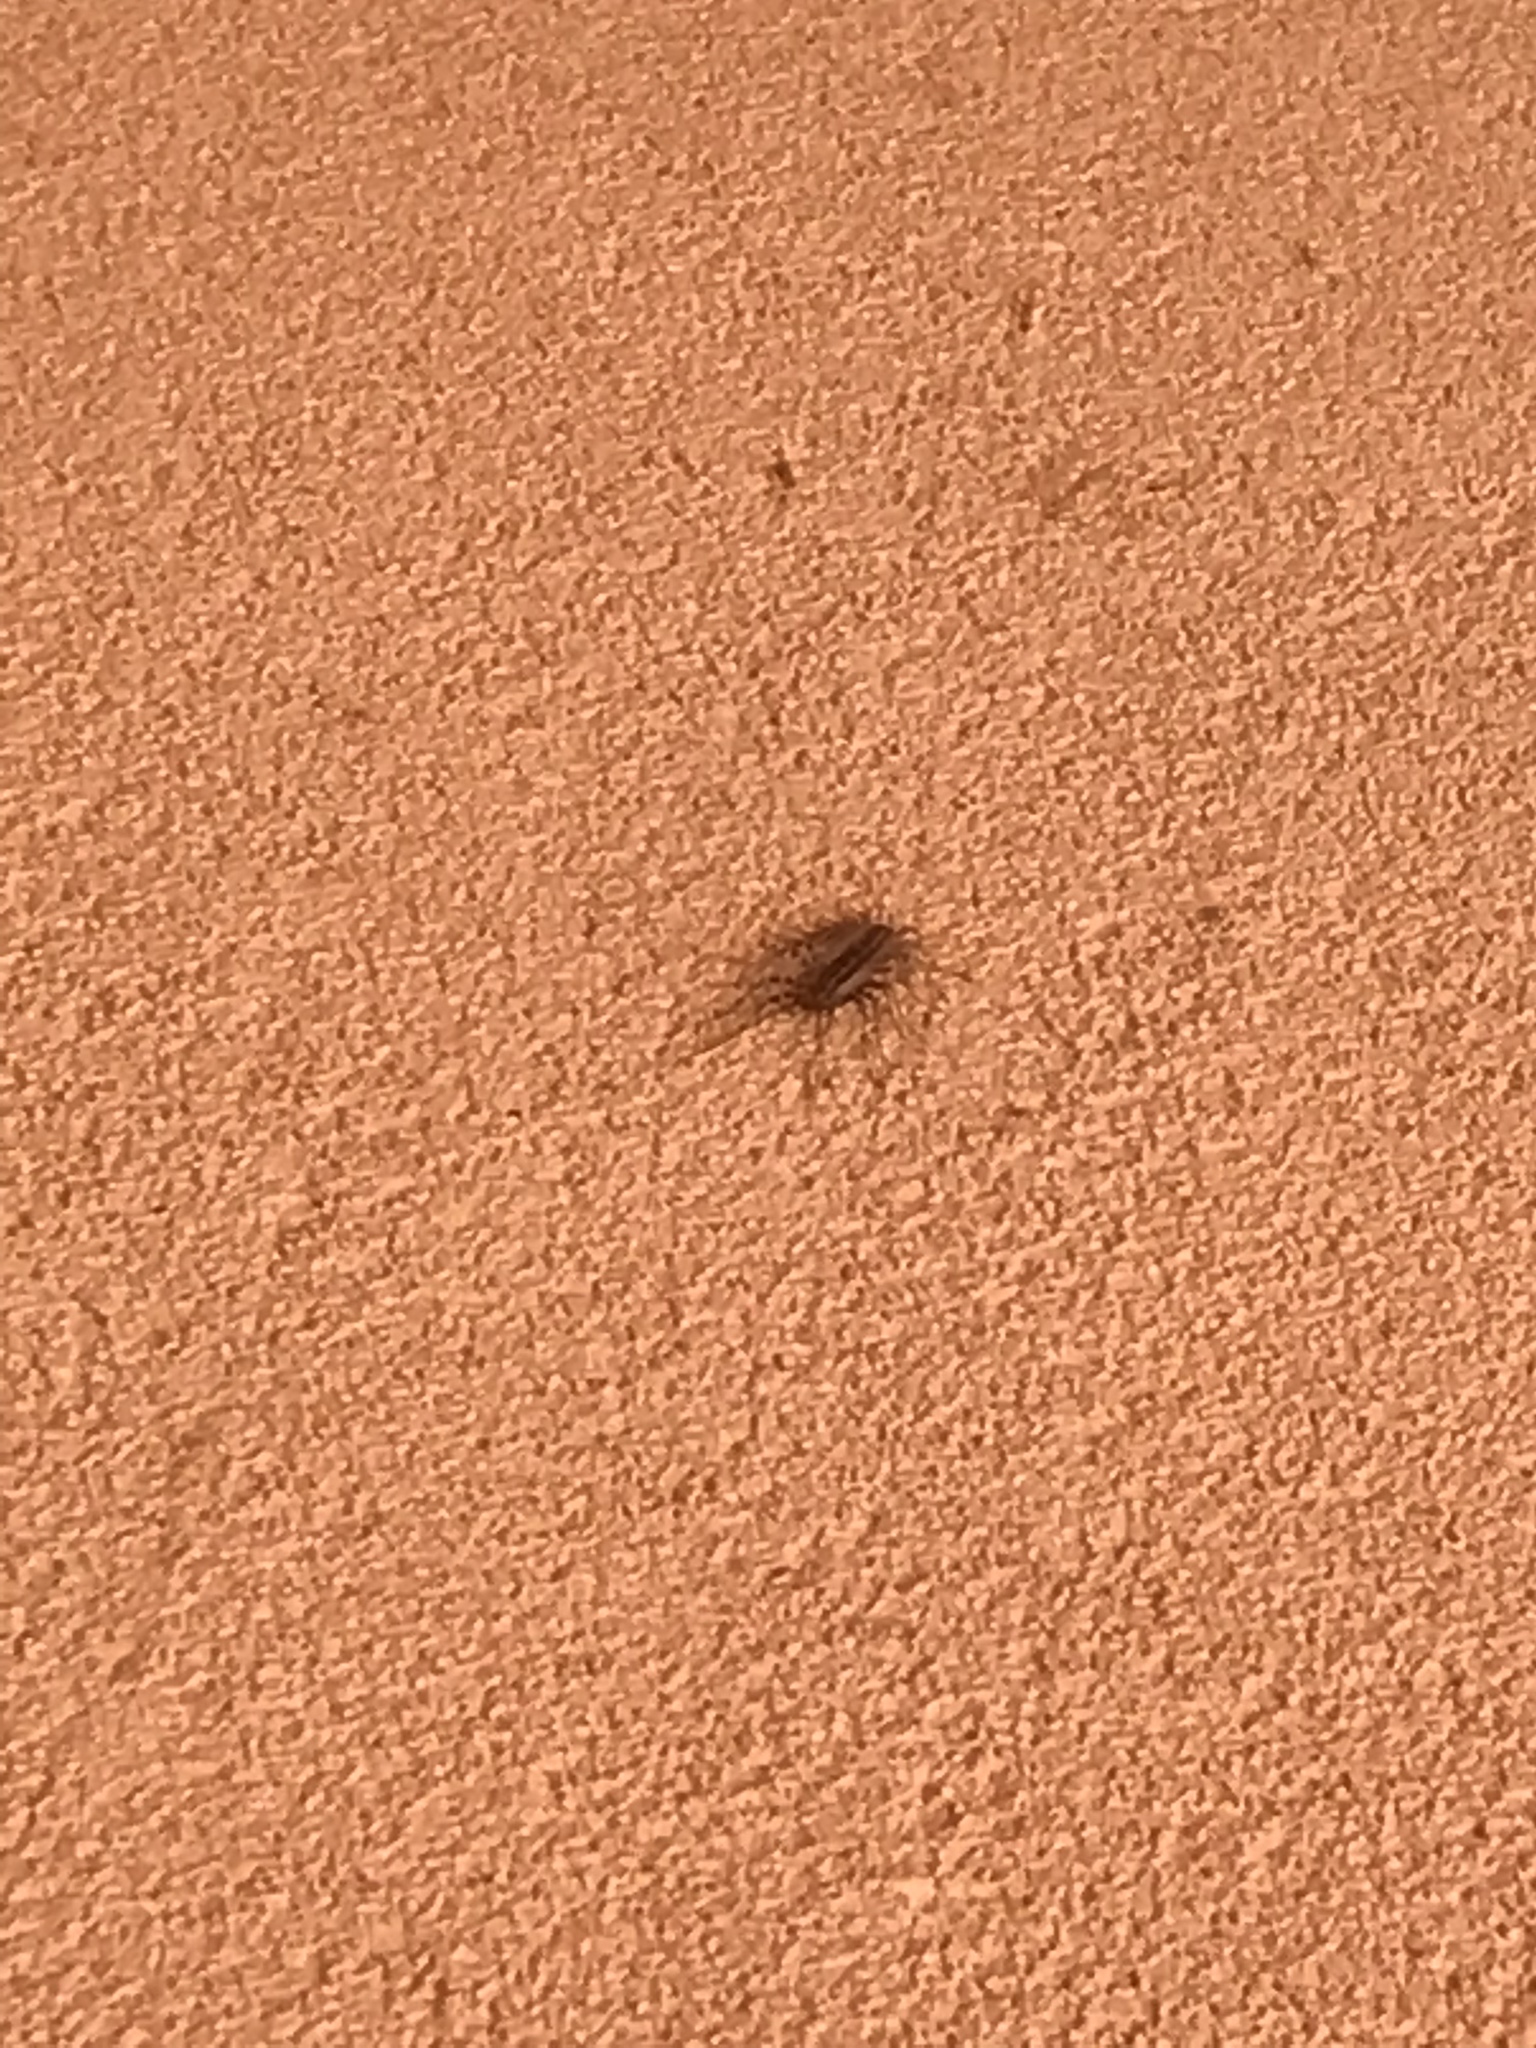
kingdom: Animalia
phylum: Arthropoda
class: Chilopoda
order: Scutigeromorpha
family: Scutigeridae
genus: Scutigera
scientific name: Scutigera coleoptrata
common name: House centipede
